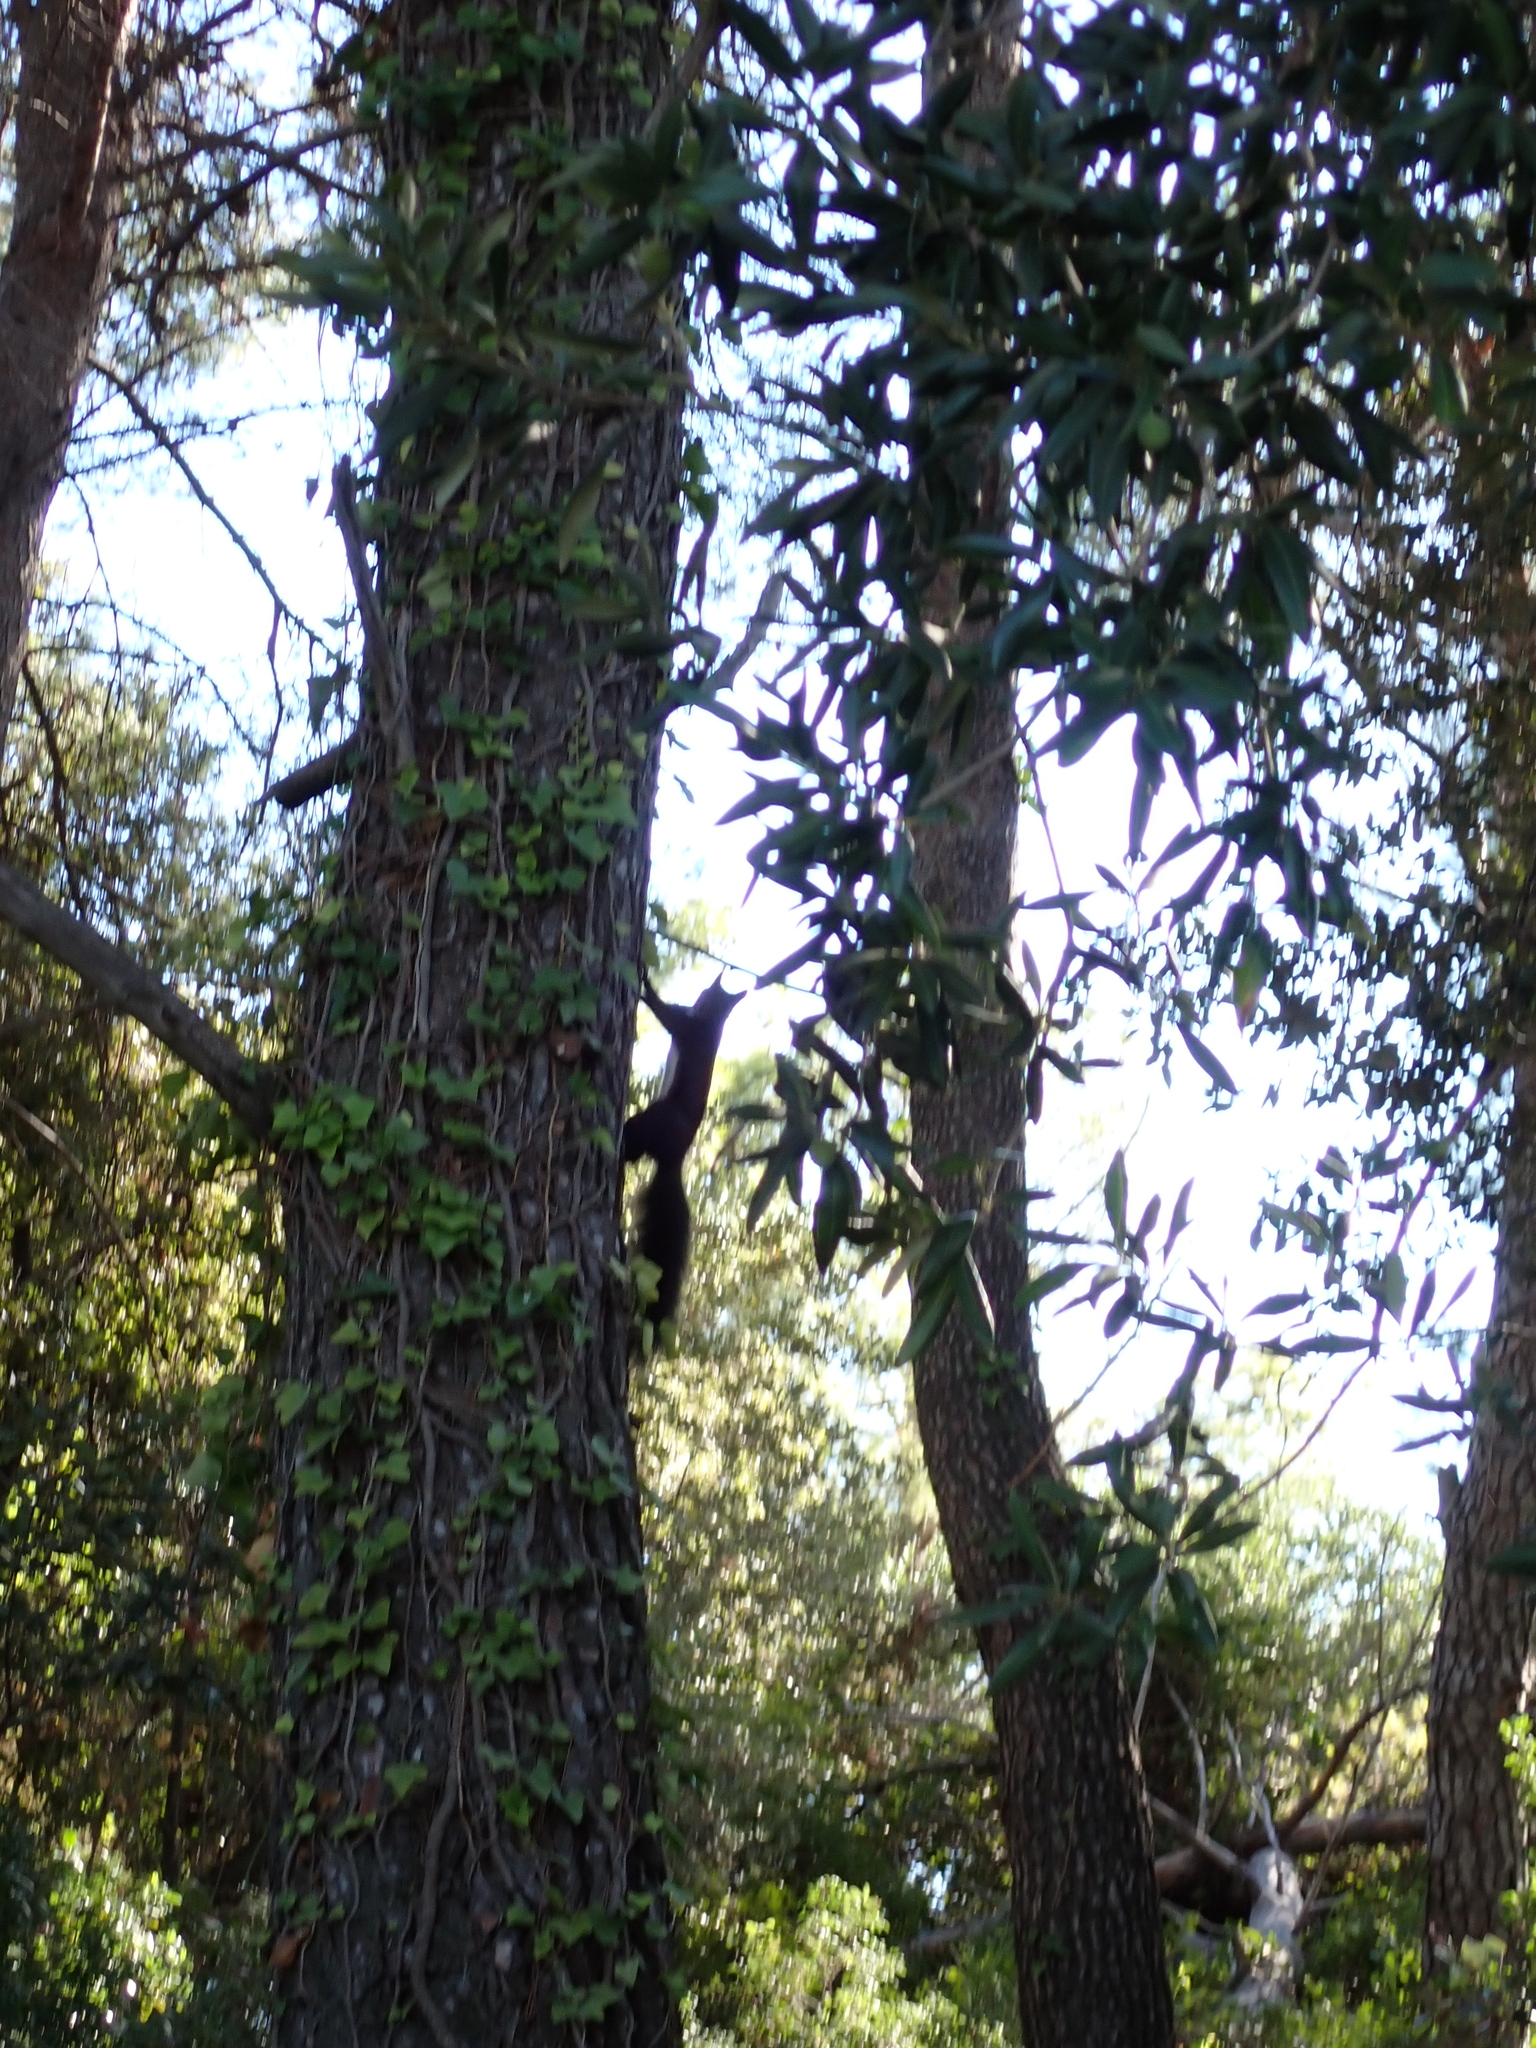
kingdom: Animalia
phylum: Chordata
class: Mammalia
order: Rodentia
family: Sciuridae
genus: Sciurus
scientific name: Sciurus vulgaris
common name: Eurasian red squirrel
